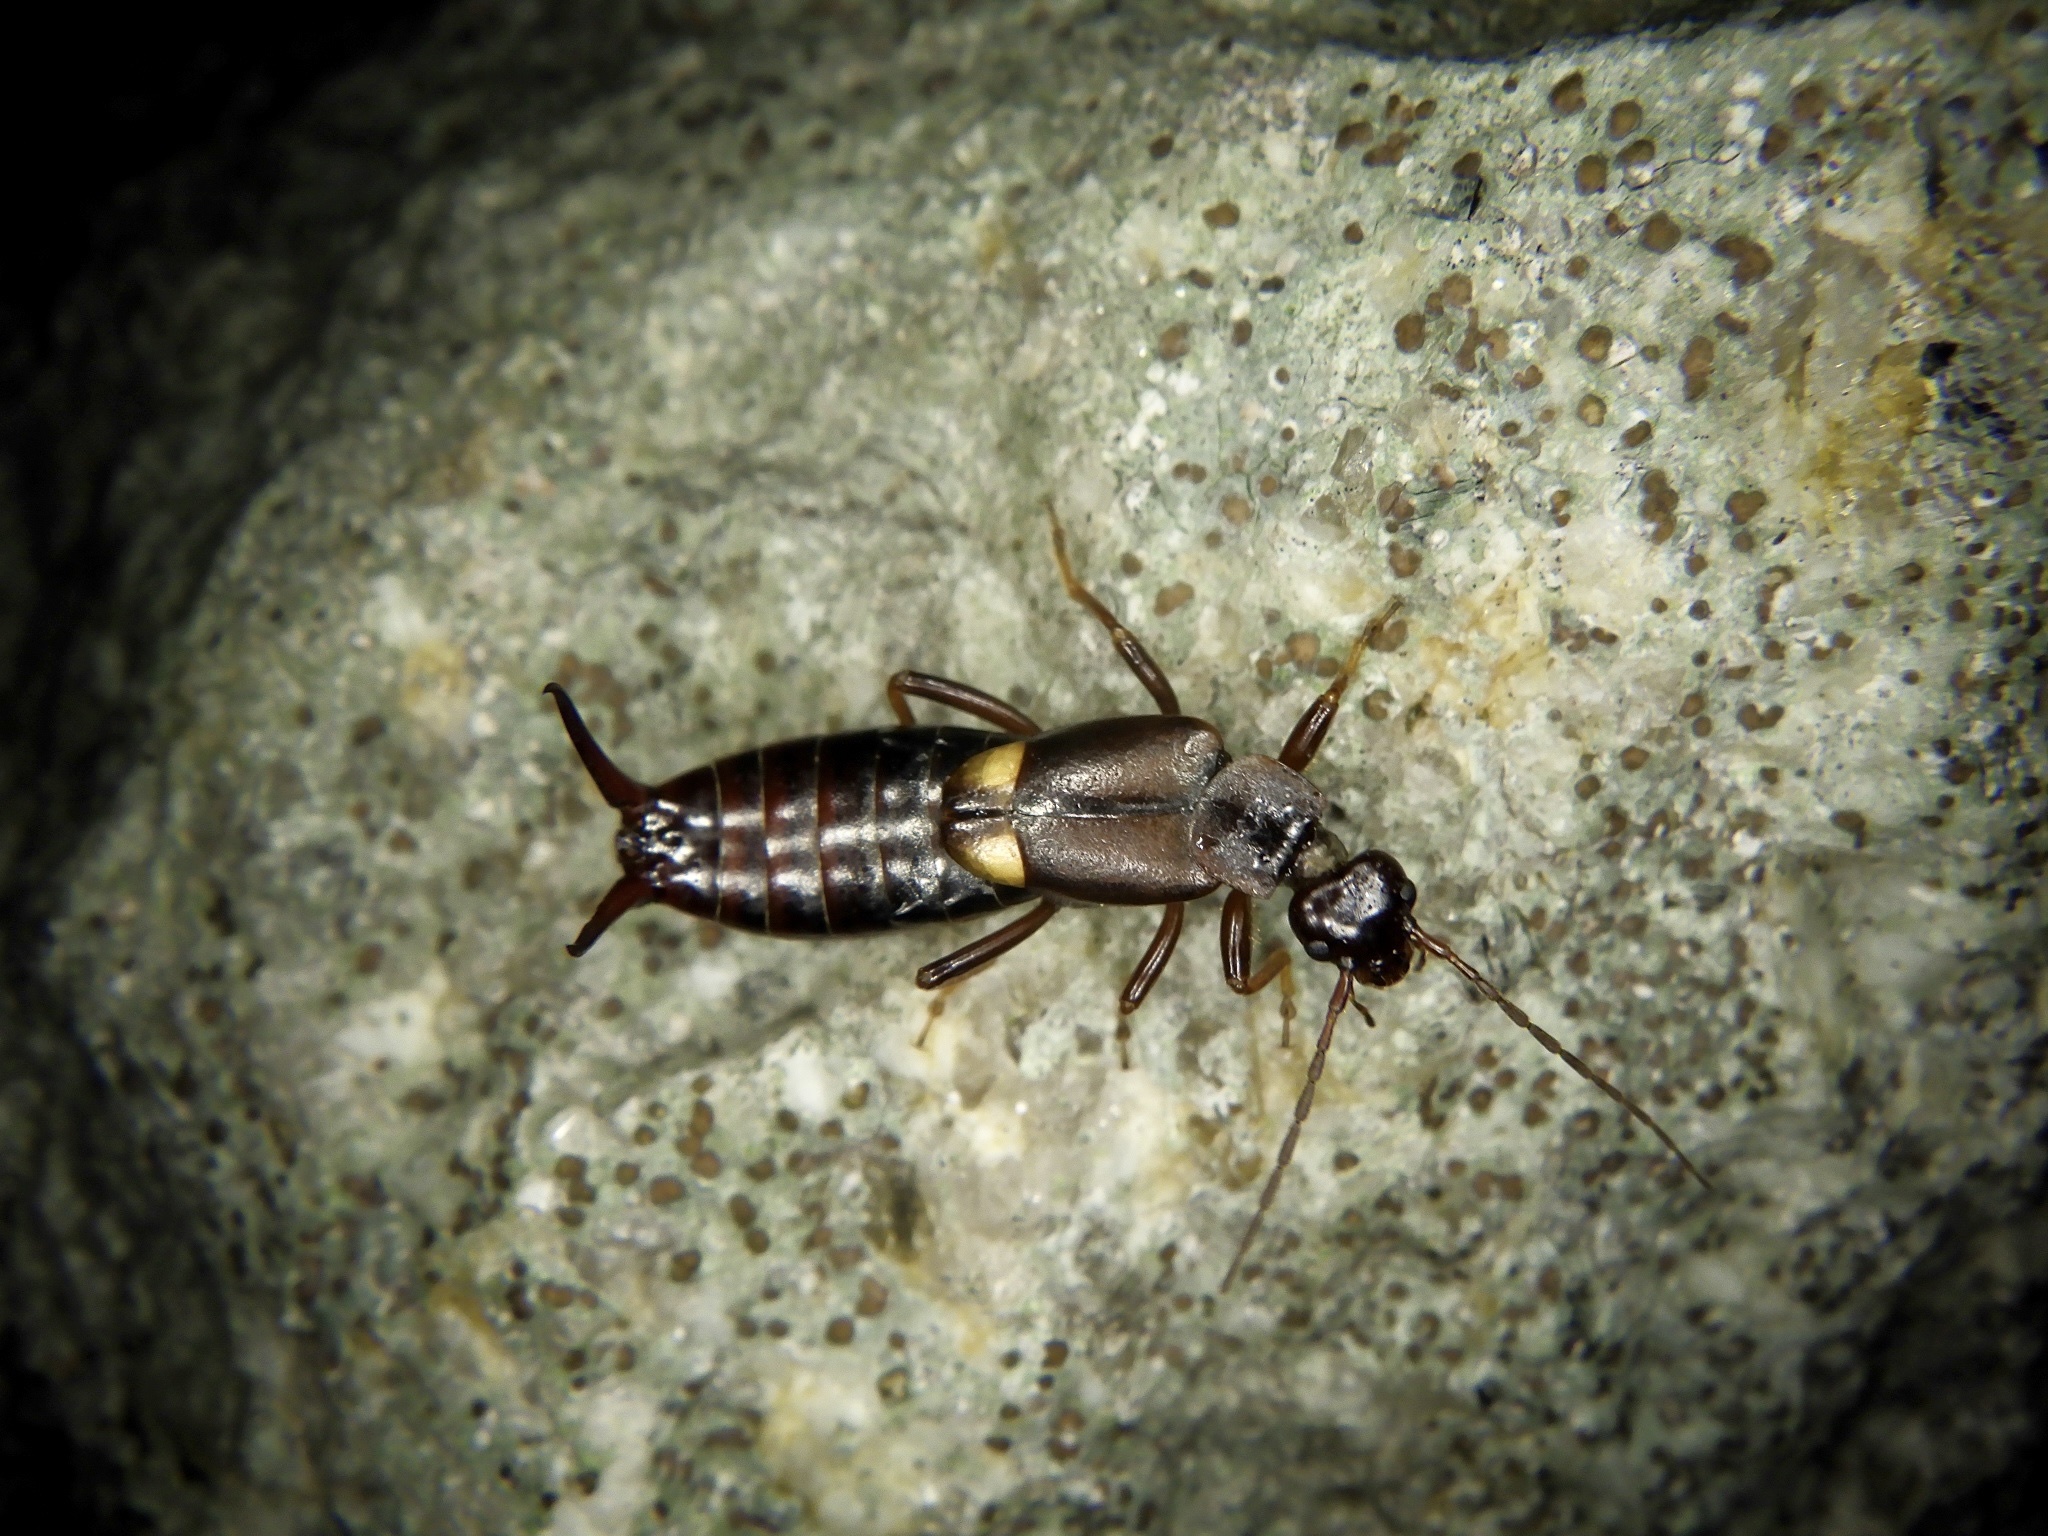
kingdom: Animalia
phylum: Arthropoda
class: Insecta
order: Dermaptera
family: Forficulidae
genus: Anechura
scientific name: Anechura harmandi
